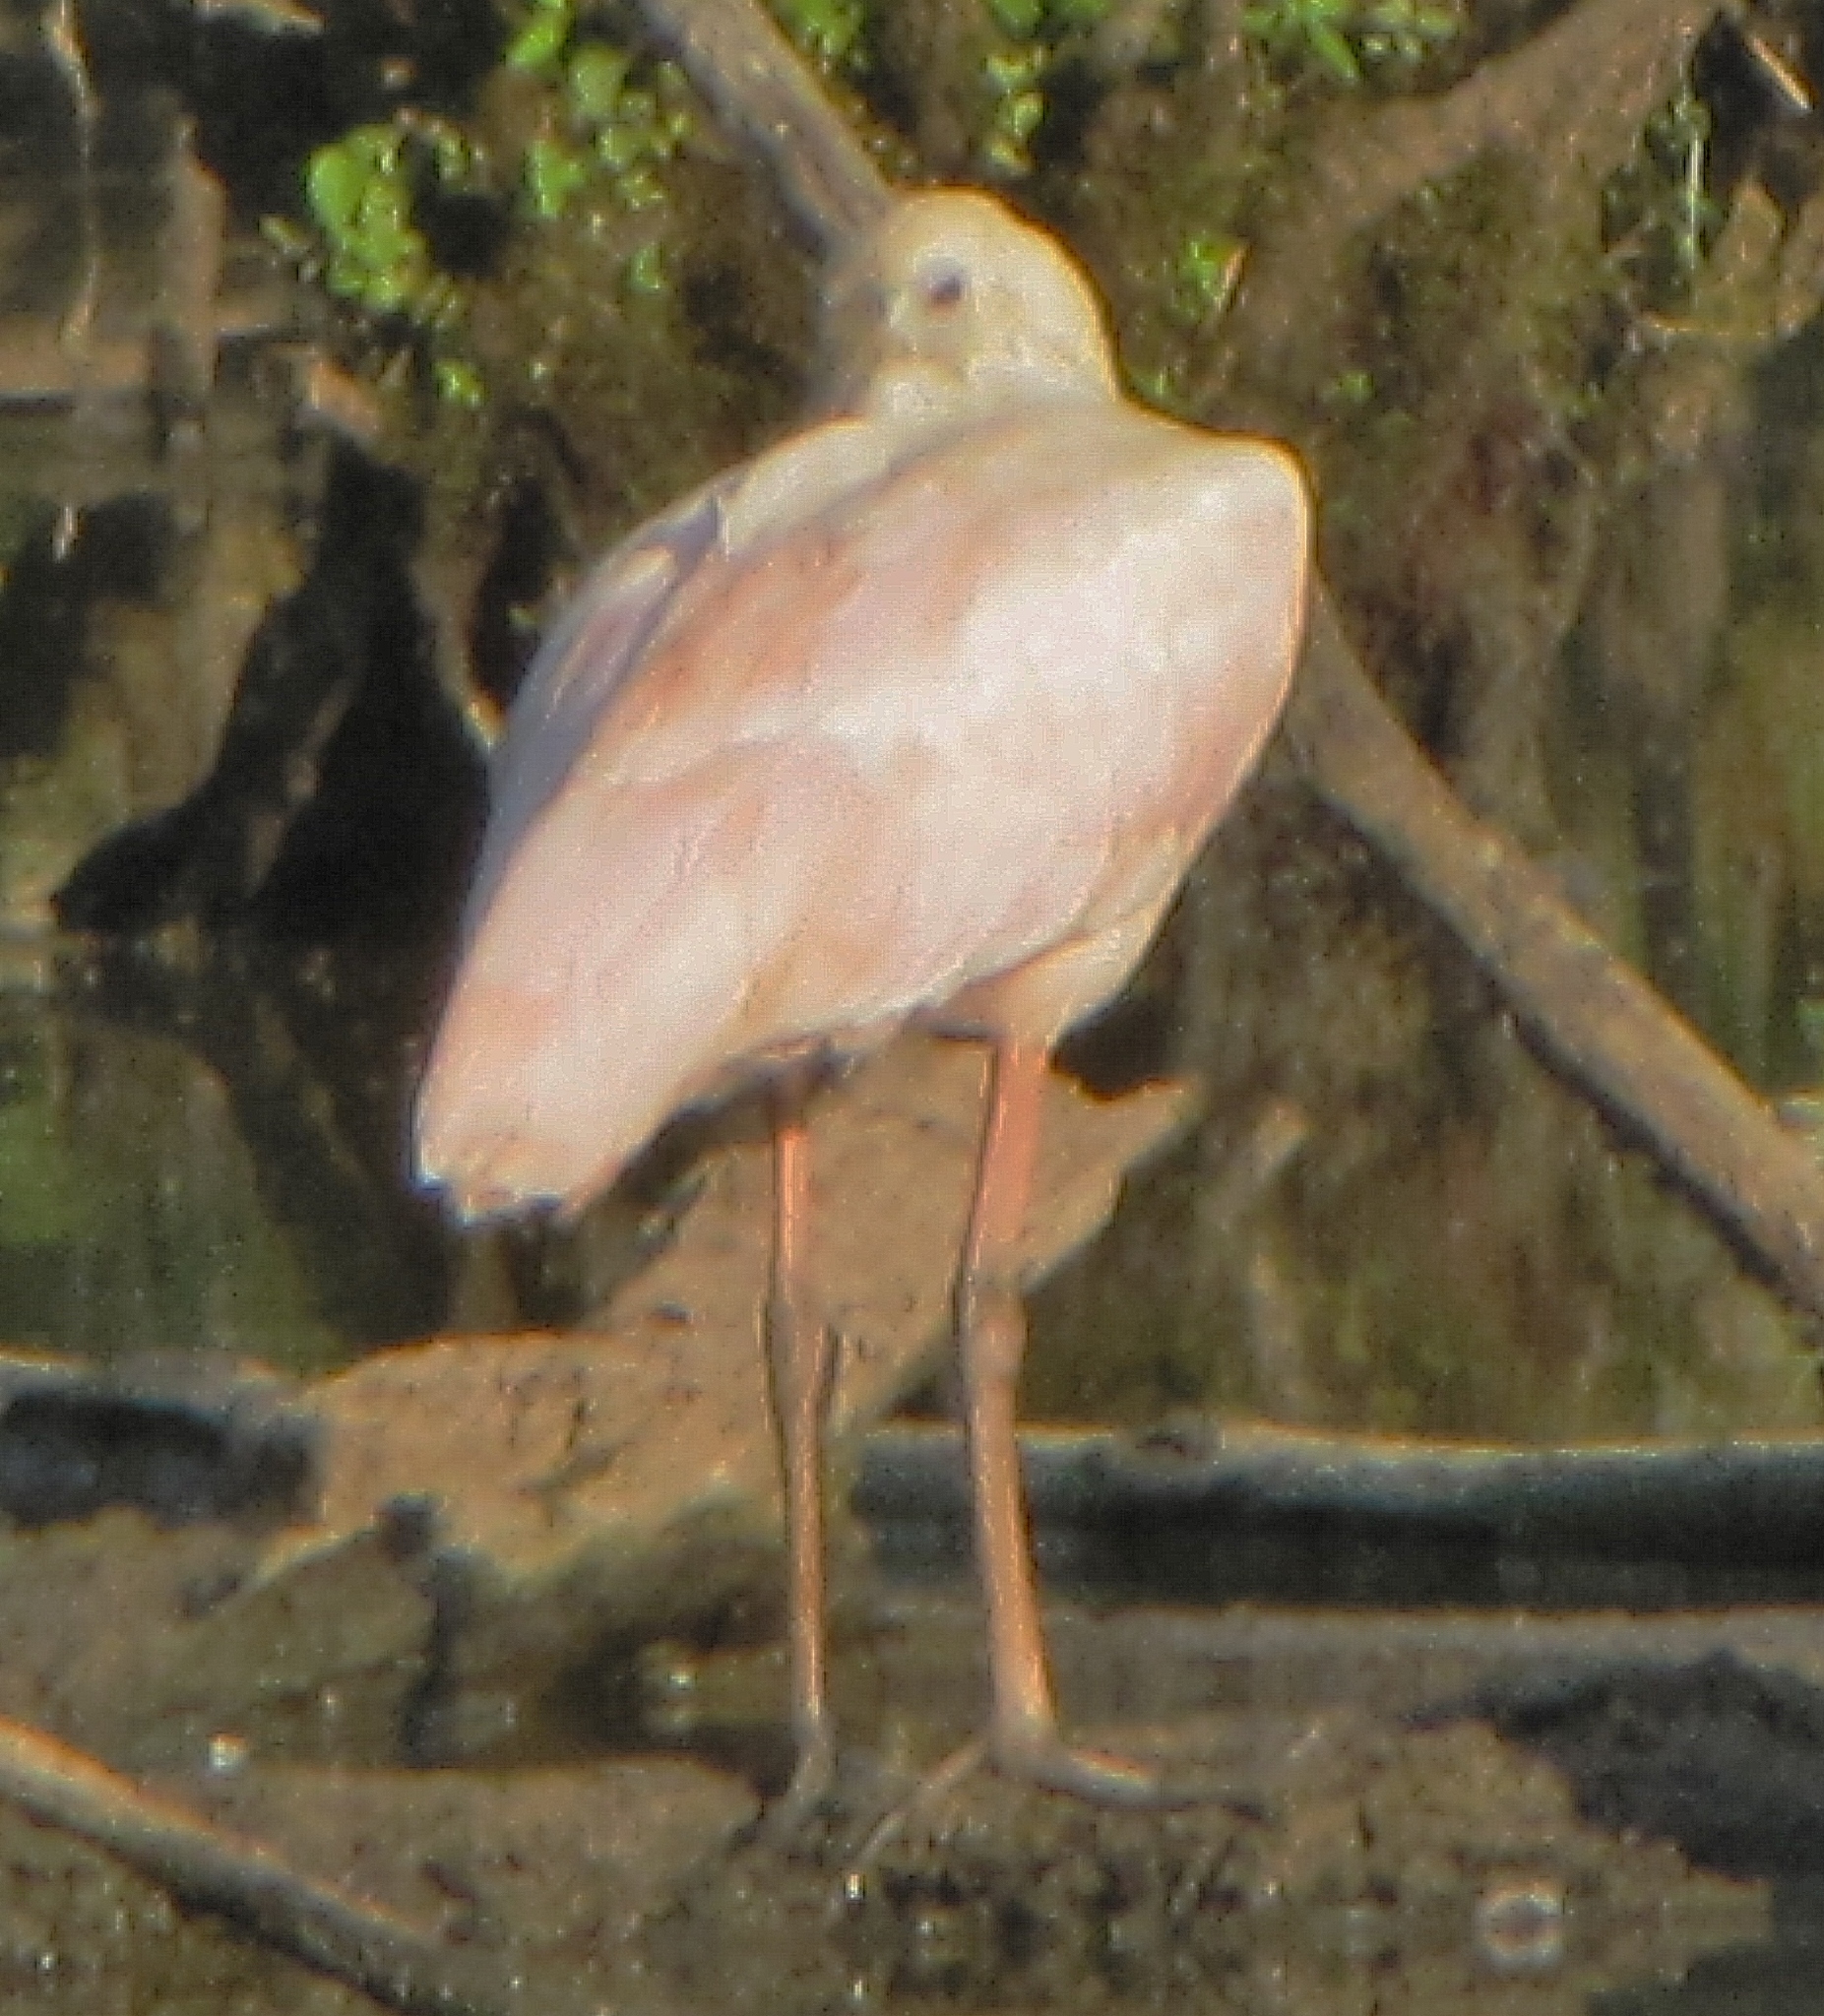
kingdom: Animalia
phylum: Chordata
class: Aves
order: Pelecaniformes
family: Threskiornithidae
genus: Platalea
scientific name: Platalea ajaja
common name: Roseate spoonbill
